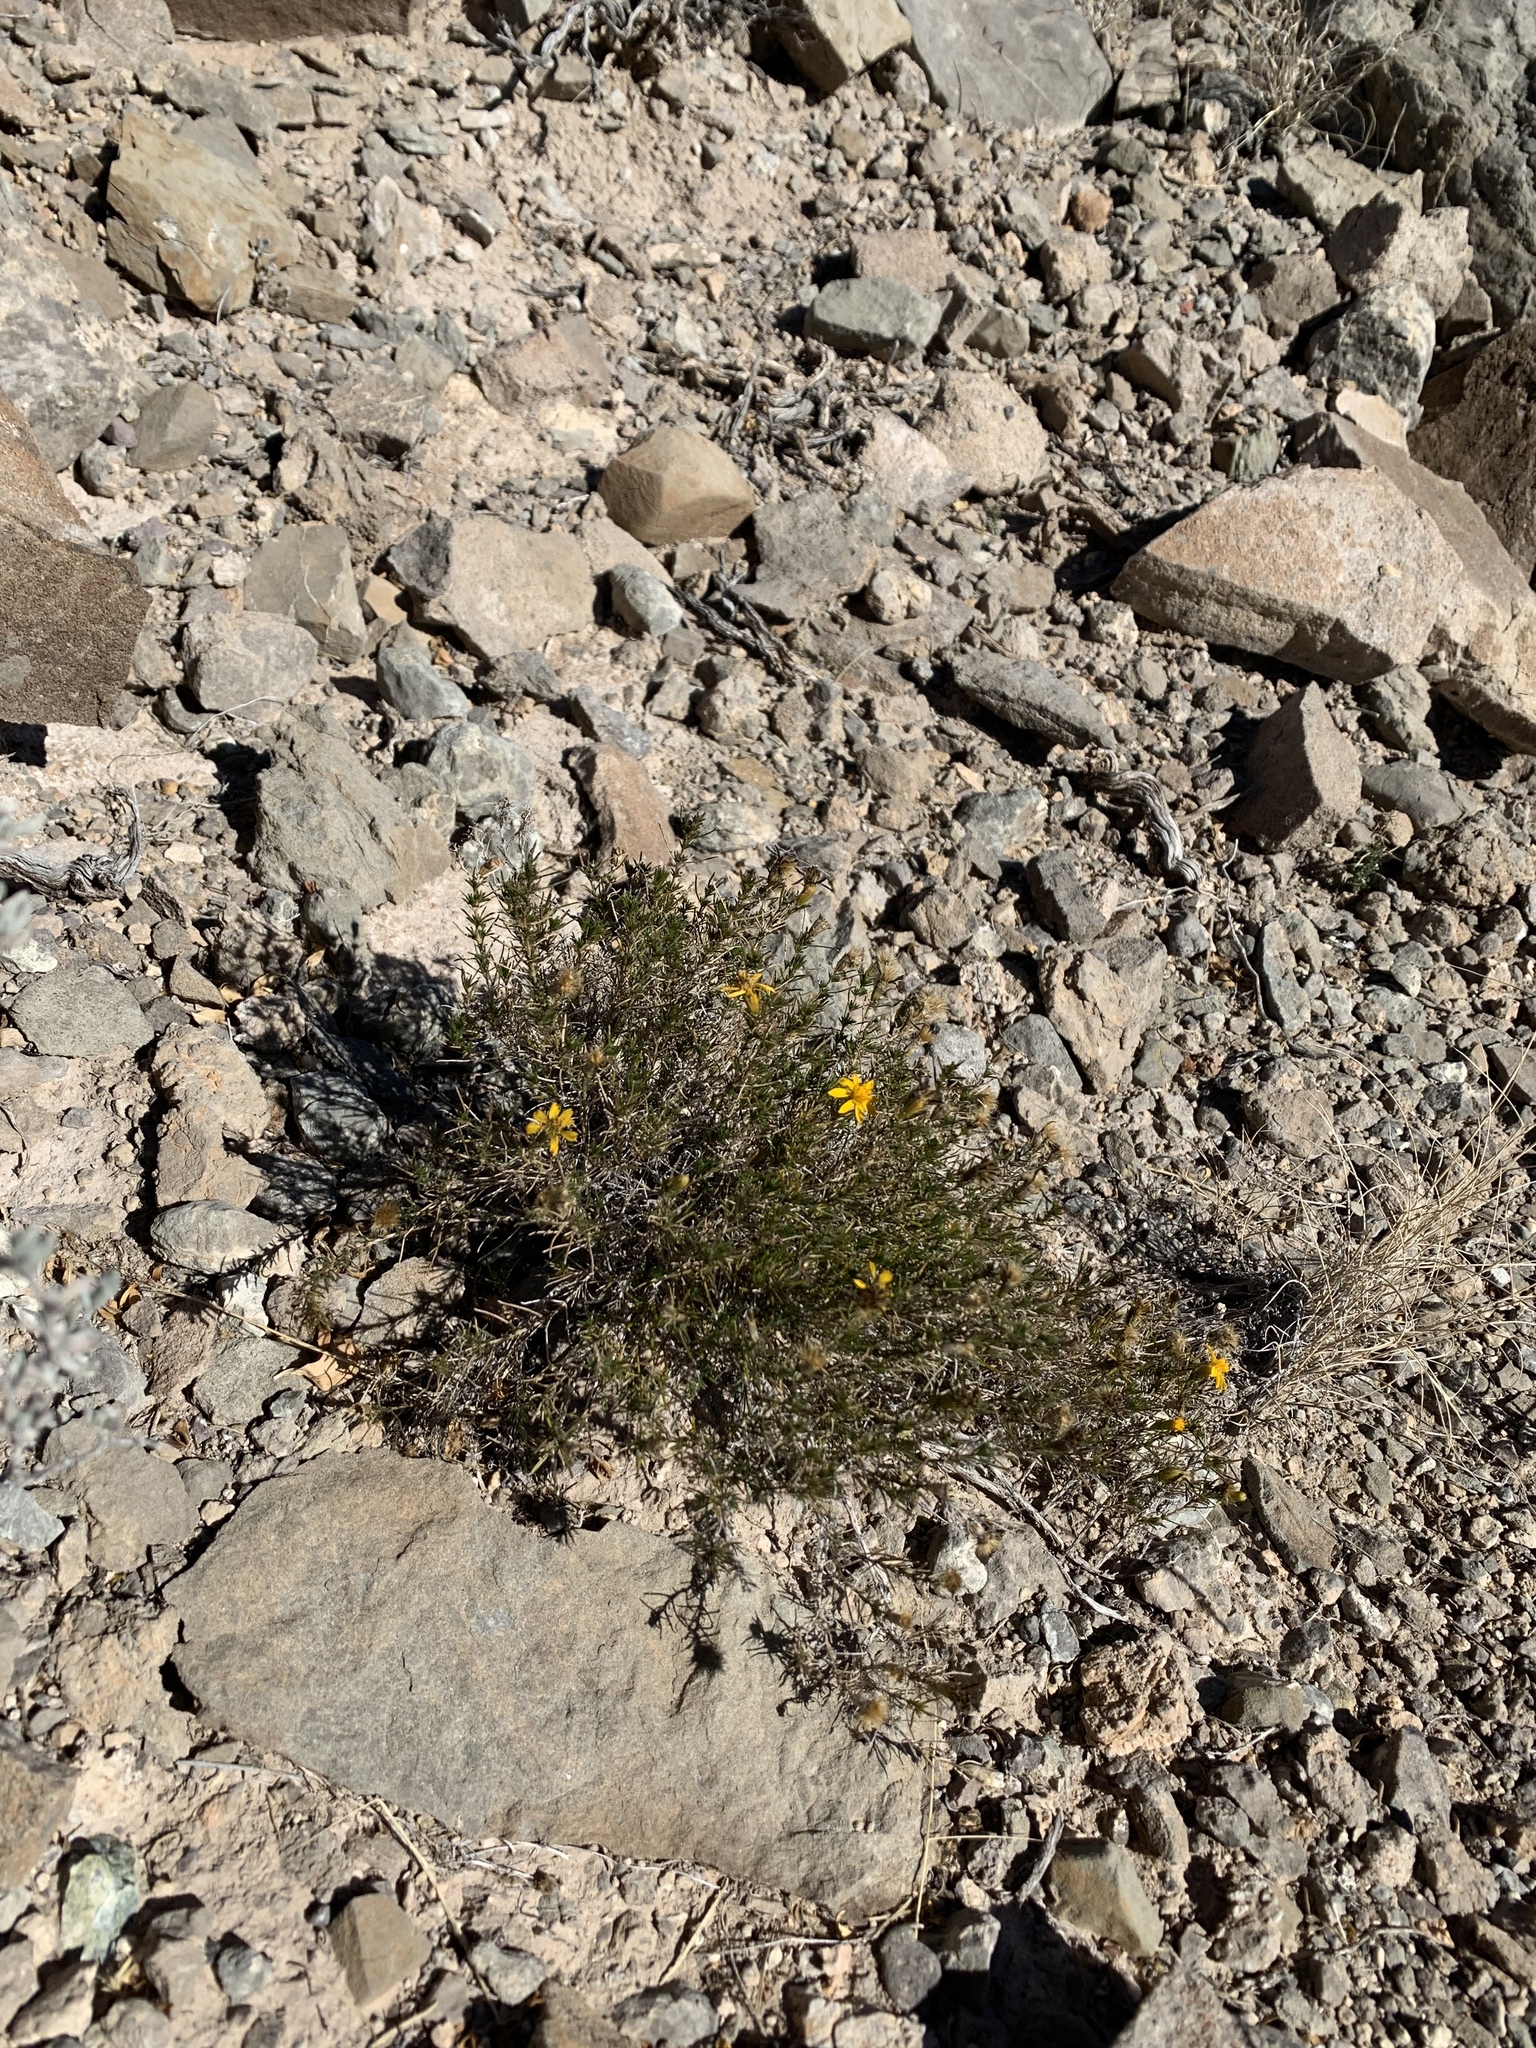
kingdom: Plantae
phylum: Tracheophyta
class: Magnoliopsida
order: Asterales
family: Asteraceae
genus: Thymophylla
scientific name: Thymophylla acerosa
